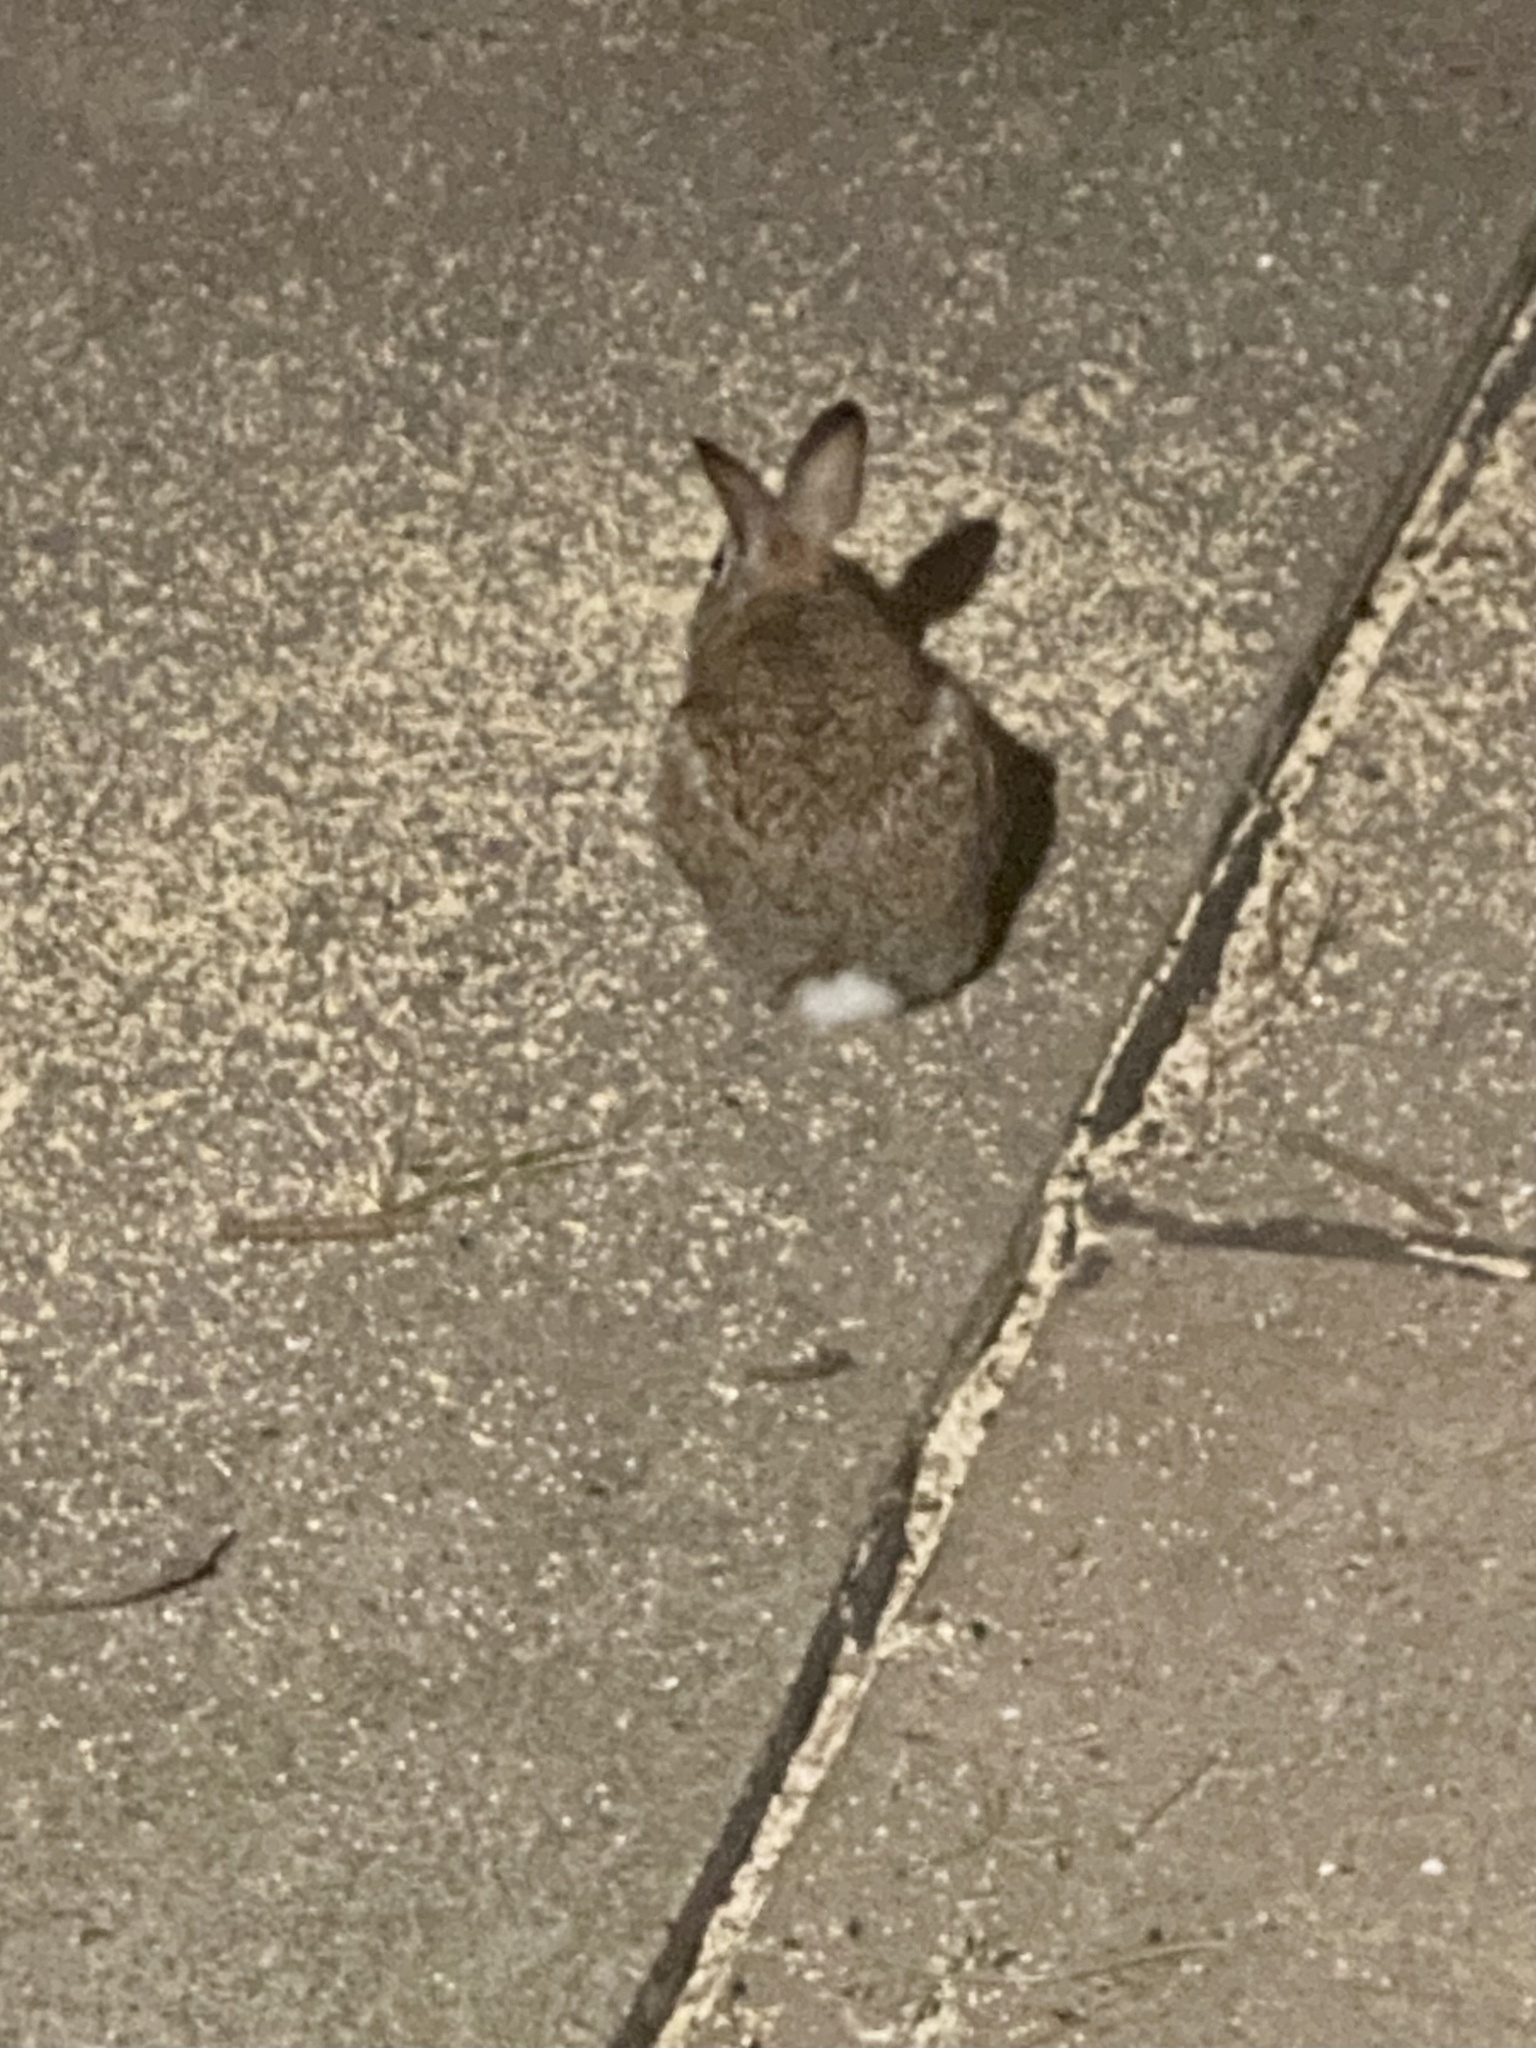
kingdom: Animalia
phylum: Chordata
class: Mammalia
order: Lagomorpha
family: Leporidae
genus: Sylvilagus
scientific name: Sylvilagus floridanus
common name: Eastern cottontail
